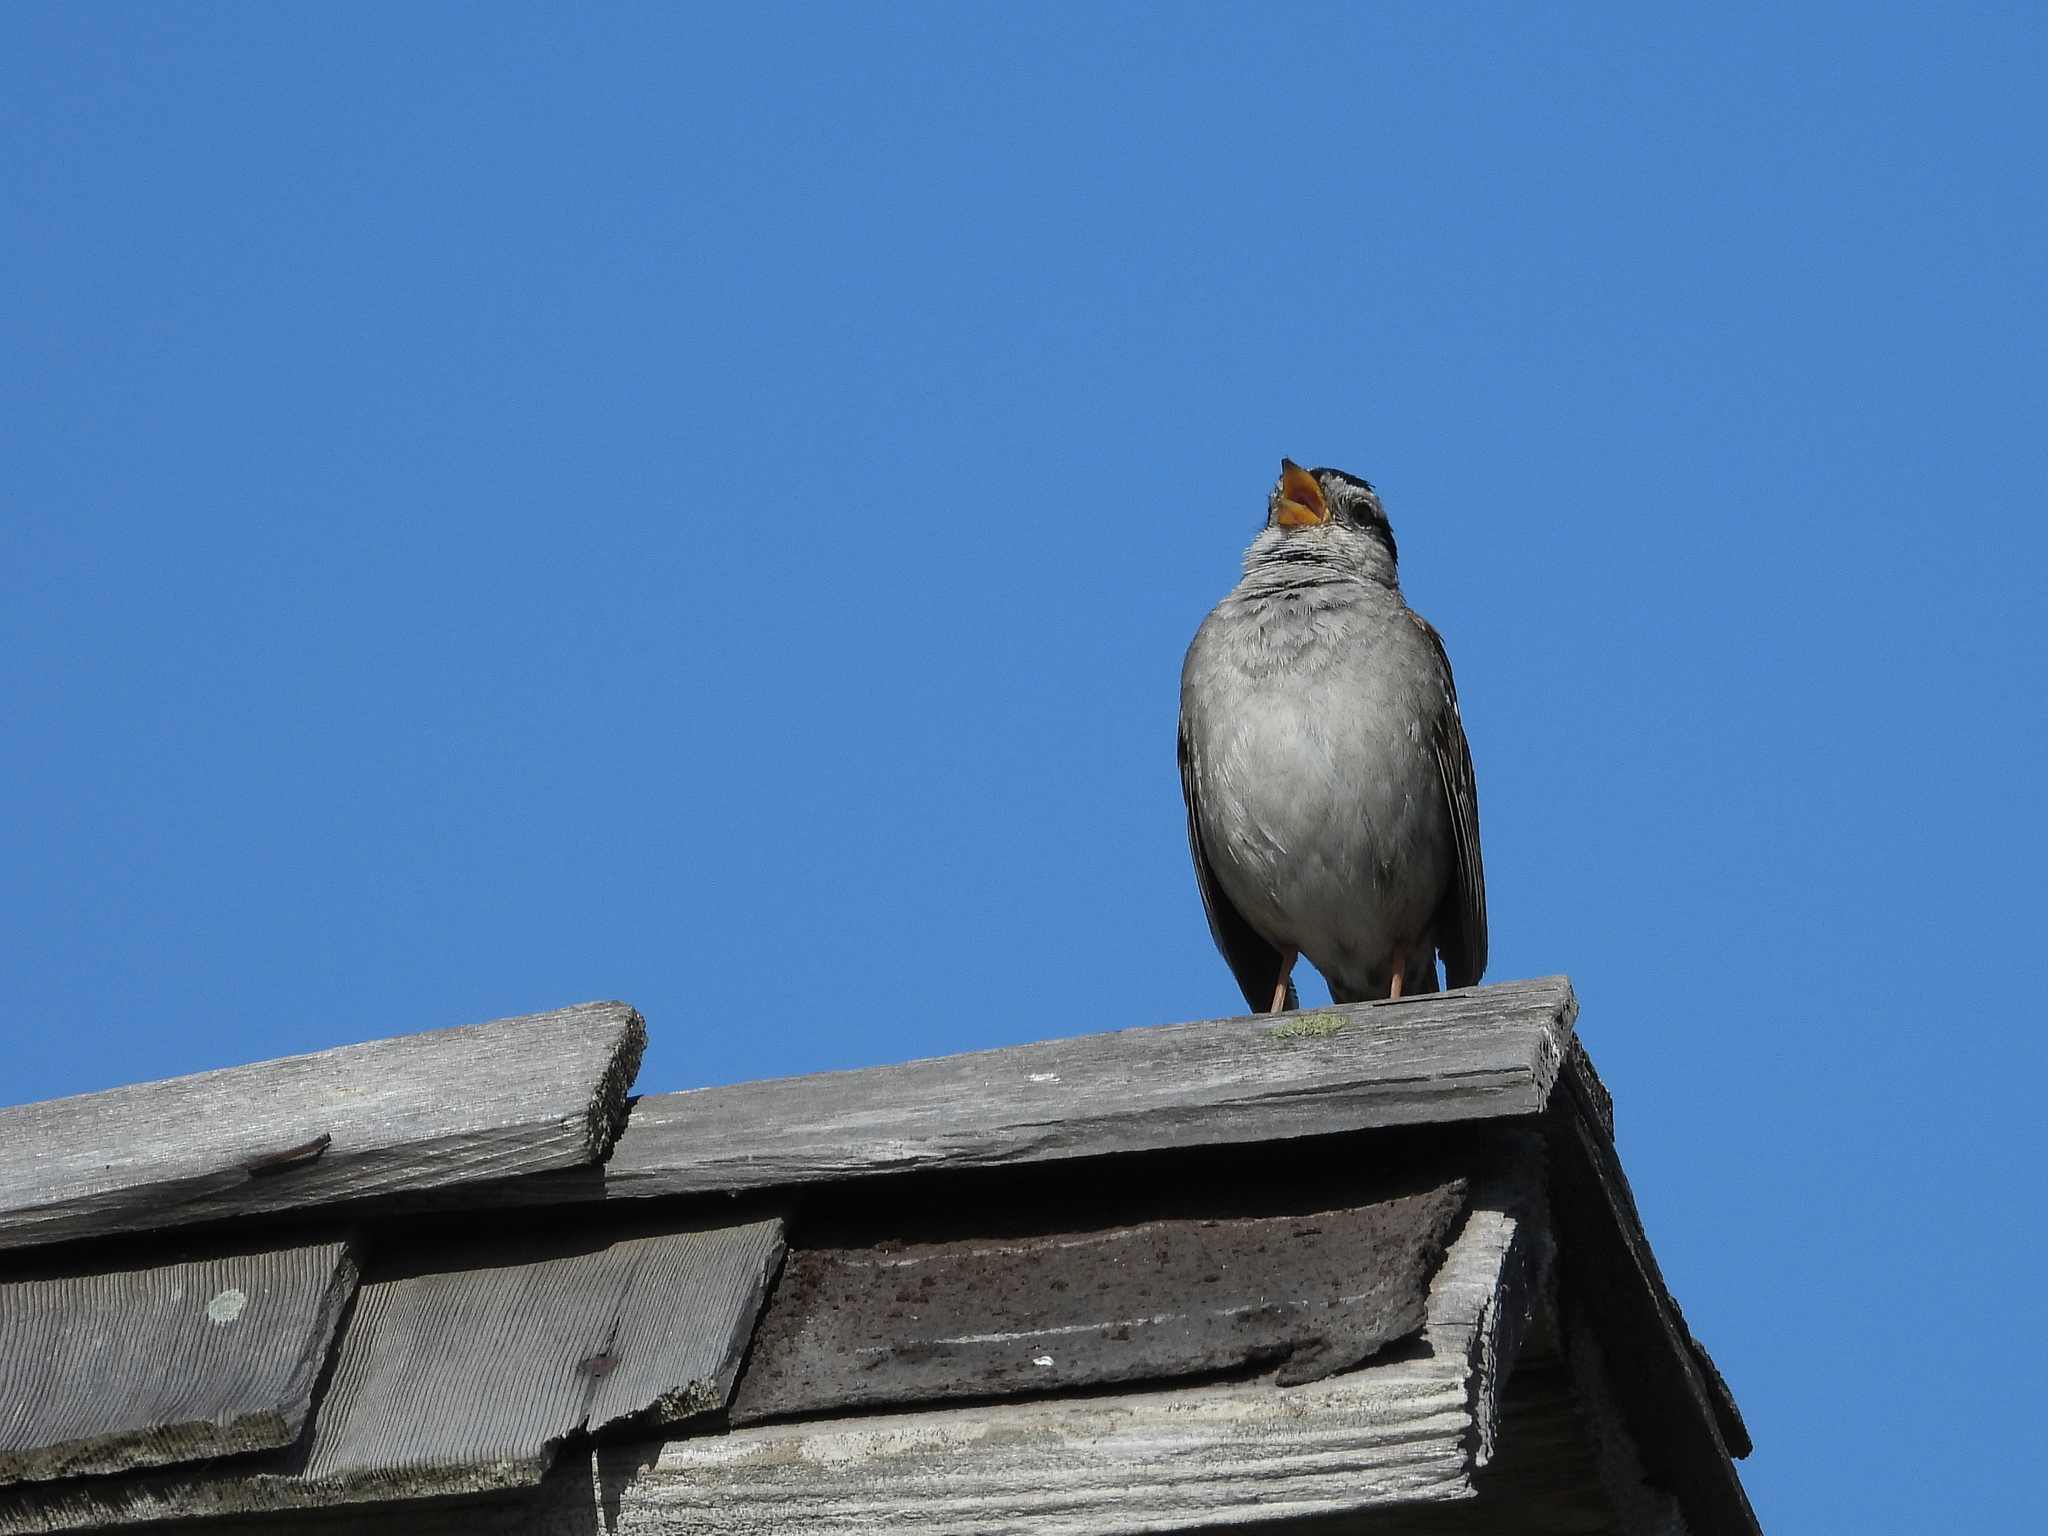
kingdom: Animalia
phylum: Chordata
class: Aves
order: Passeriformes
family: Passerellidae
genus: Zonotrichia
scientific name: Zonotrichia leucophrys
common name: White-crowned sparrow
